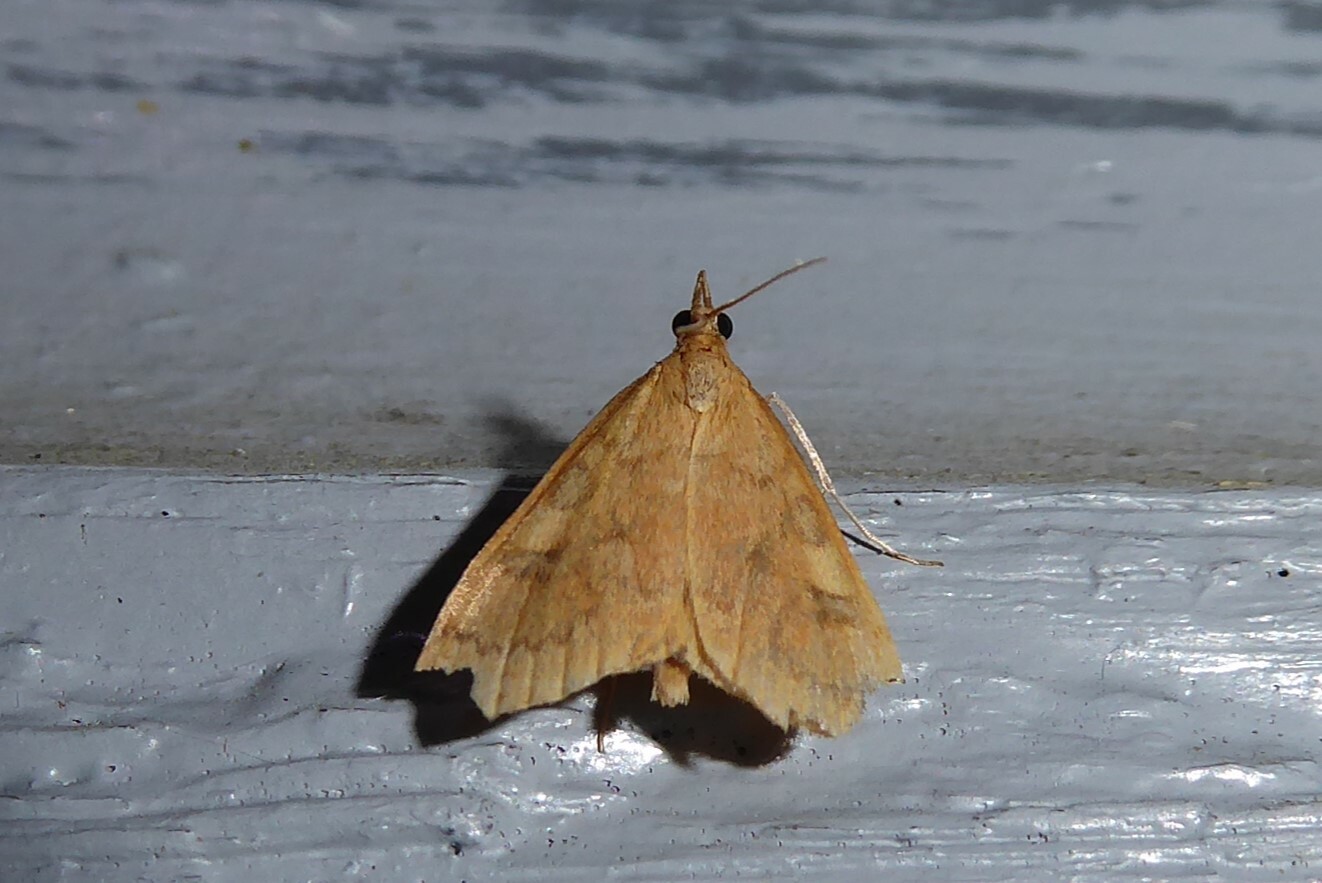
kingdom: Animalia
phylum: Arthropoda
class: Insecta
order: Lepidoptera
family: Crambidae
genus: Udea
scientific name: Udea Mnesictena flavidalis
